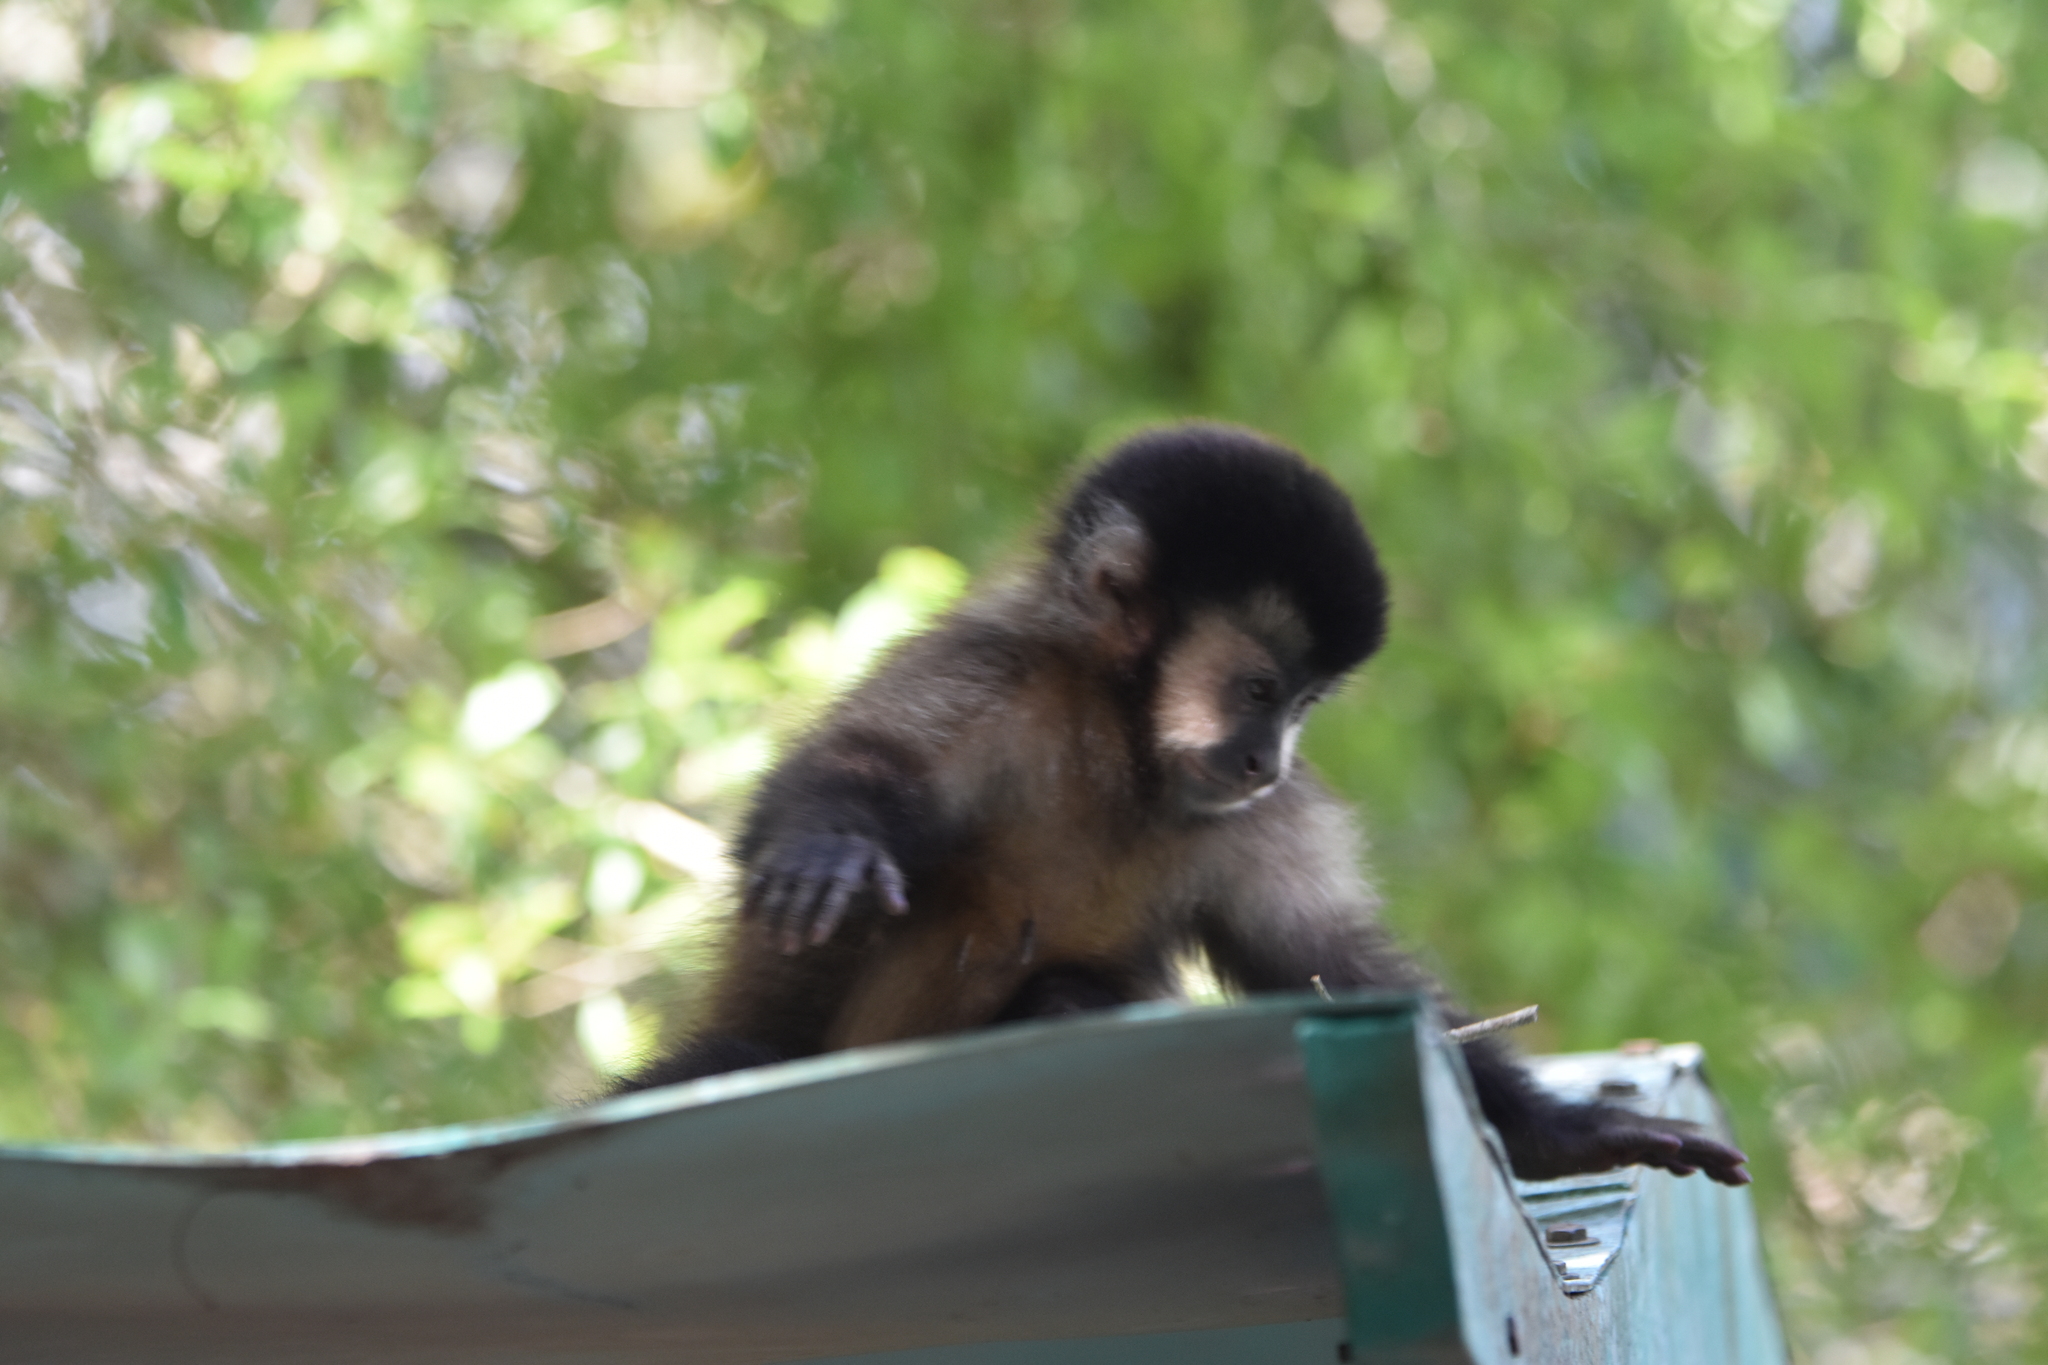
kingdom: Animalia
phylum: Chordata
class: Mammalia
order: Primates
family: Cebidae
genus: Sapajus
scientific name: Sapajus nigritus
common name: Black capuchin
